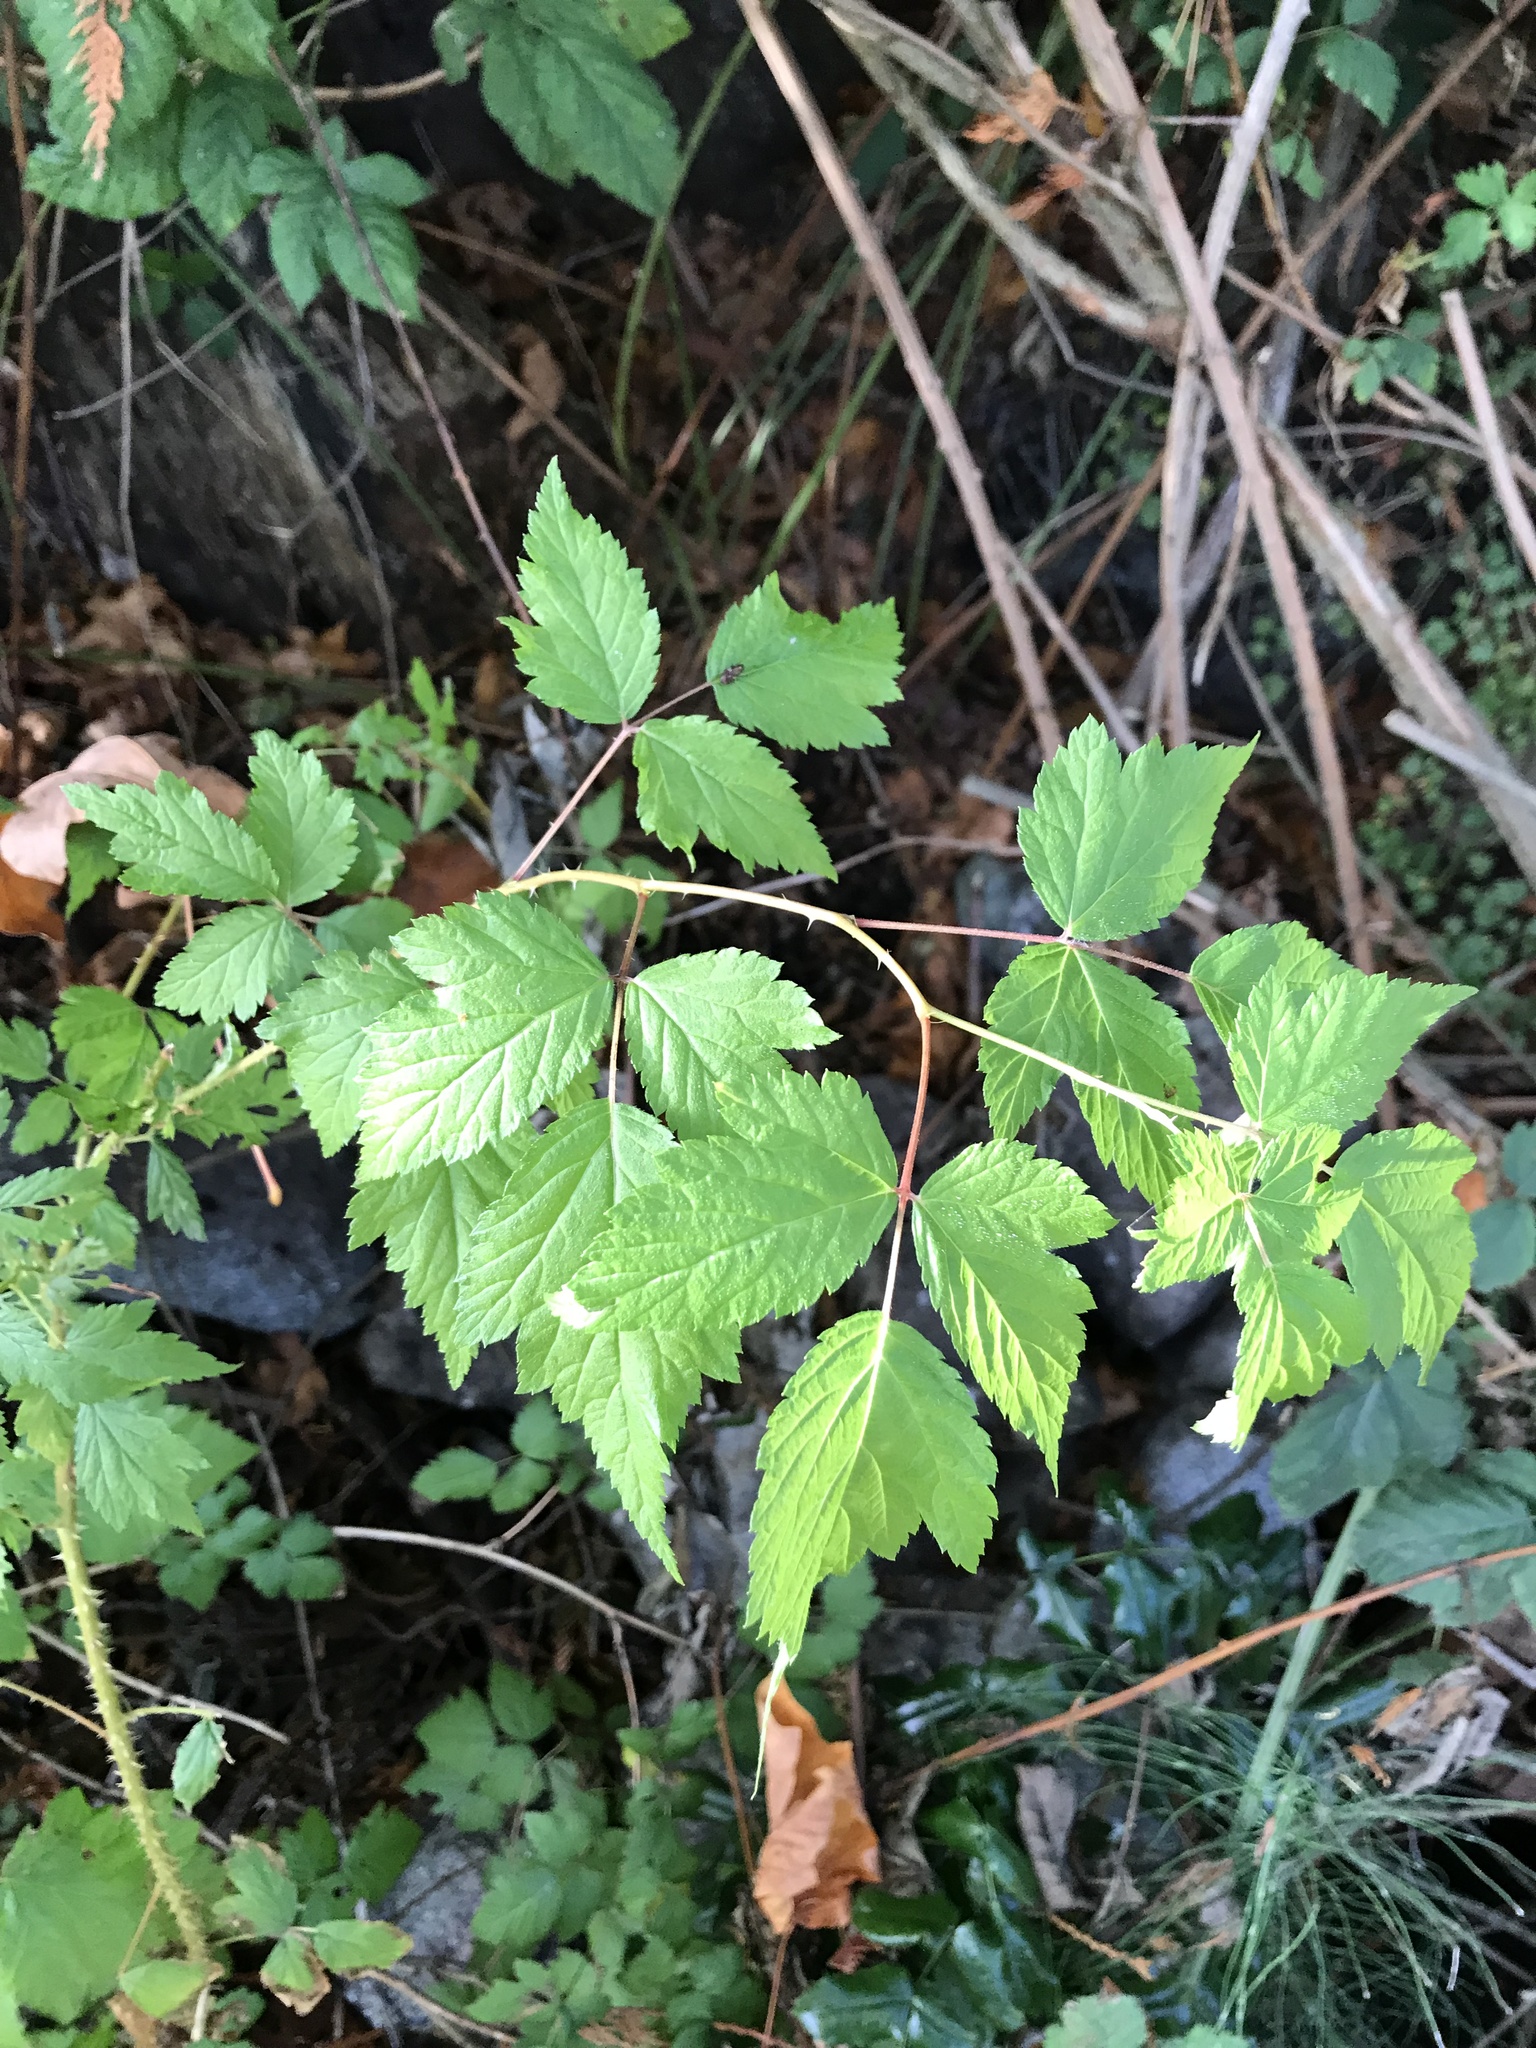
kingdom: Plantae
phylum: Tracheophyta
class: Magnoliopsida
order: Rosales
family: Rosaceae
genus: Rubus
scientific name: Rubus spectabilis
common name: Salmonberry
